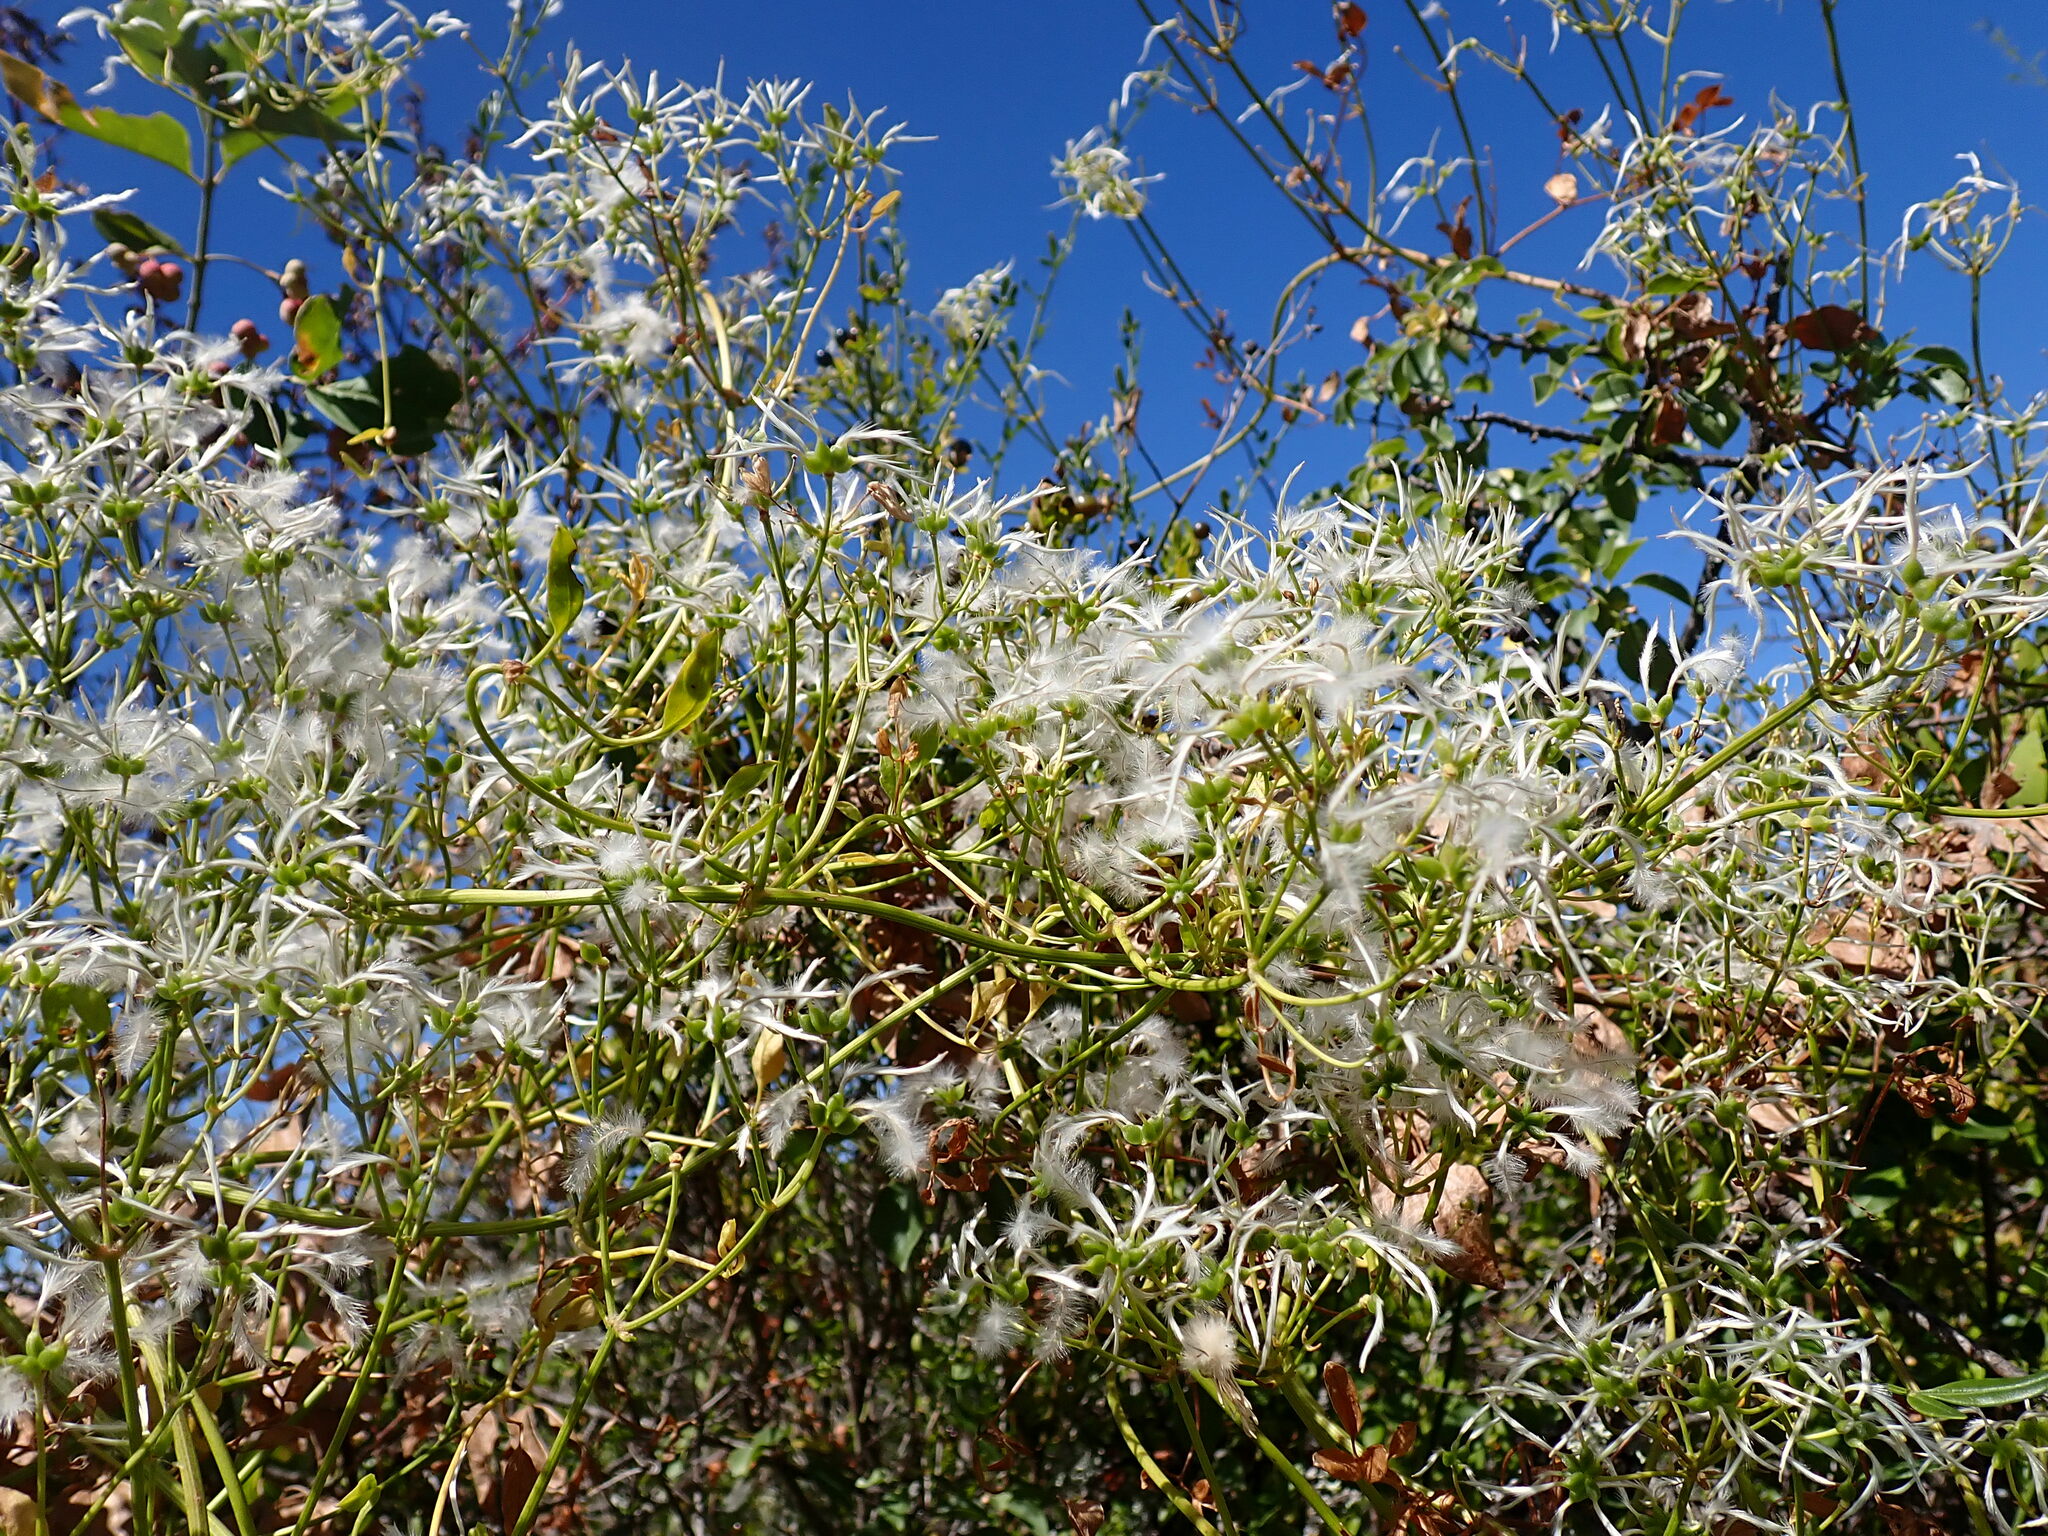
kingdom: Plantae
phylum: Tracheophyta
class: Magnoliopsida
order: Ranunculales
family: Ranunculaceae
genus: Clematis
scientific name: Clematis flammula
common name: Virgin's-bower
